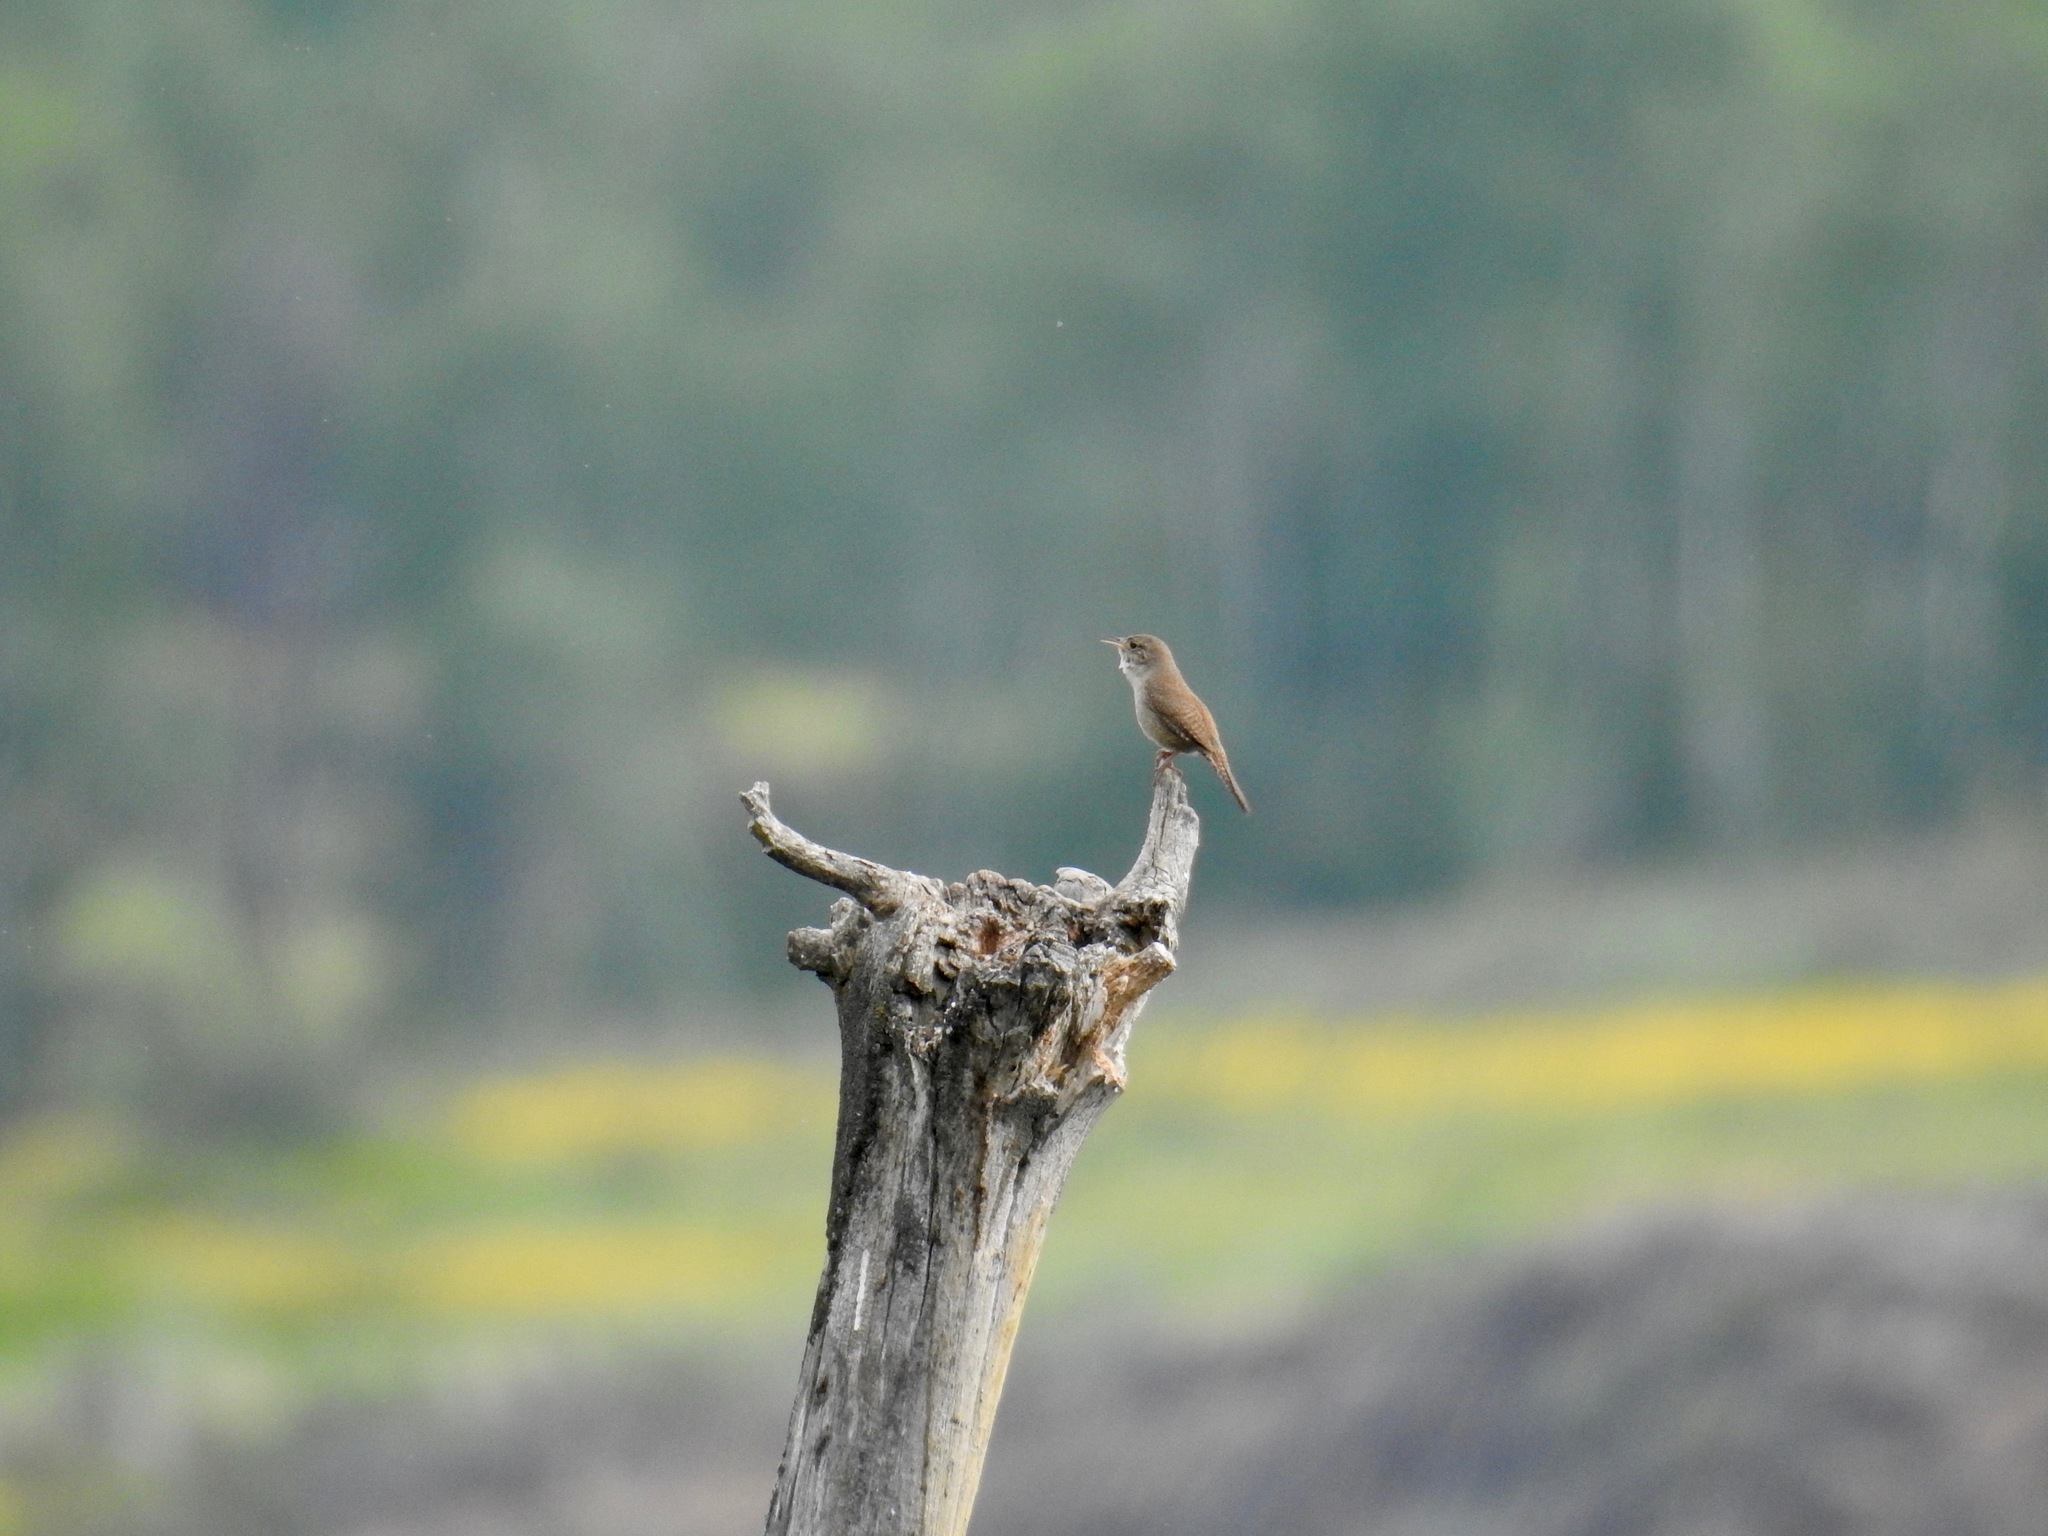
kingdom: Animalia
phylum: Chordata
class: Aves
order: Passeriformes
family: Troglodytidae
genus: Troglodytes
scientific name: Troglodytes aedon
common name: House wren
